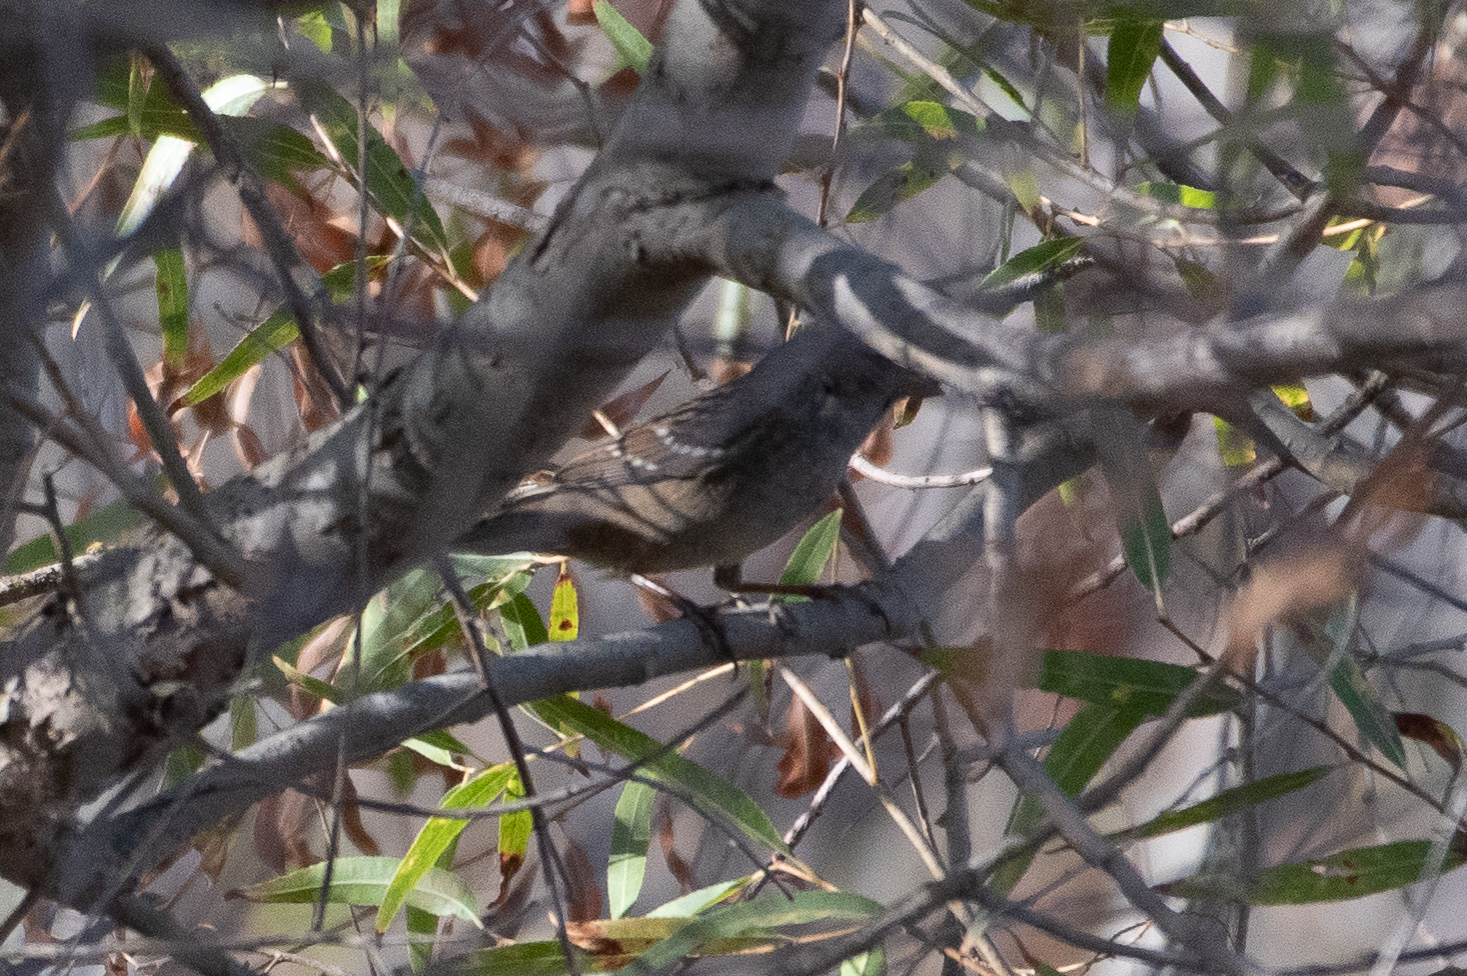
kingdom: Animalia
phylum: Chordata
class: Aves
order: Passeriformes
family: Passerellidae
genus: Zonotrichia
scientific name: Zonotrichia
